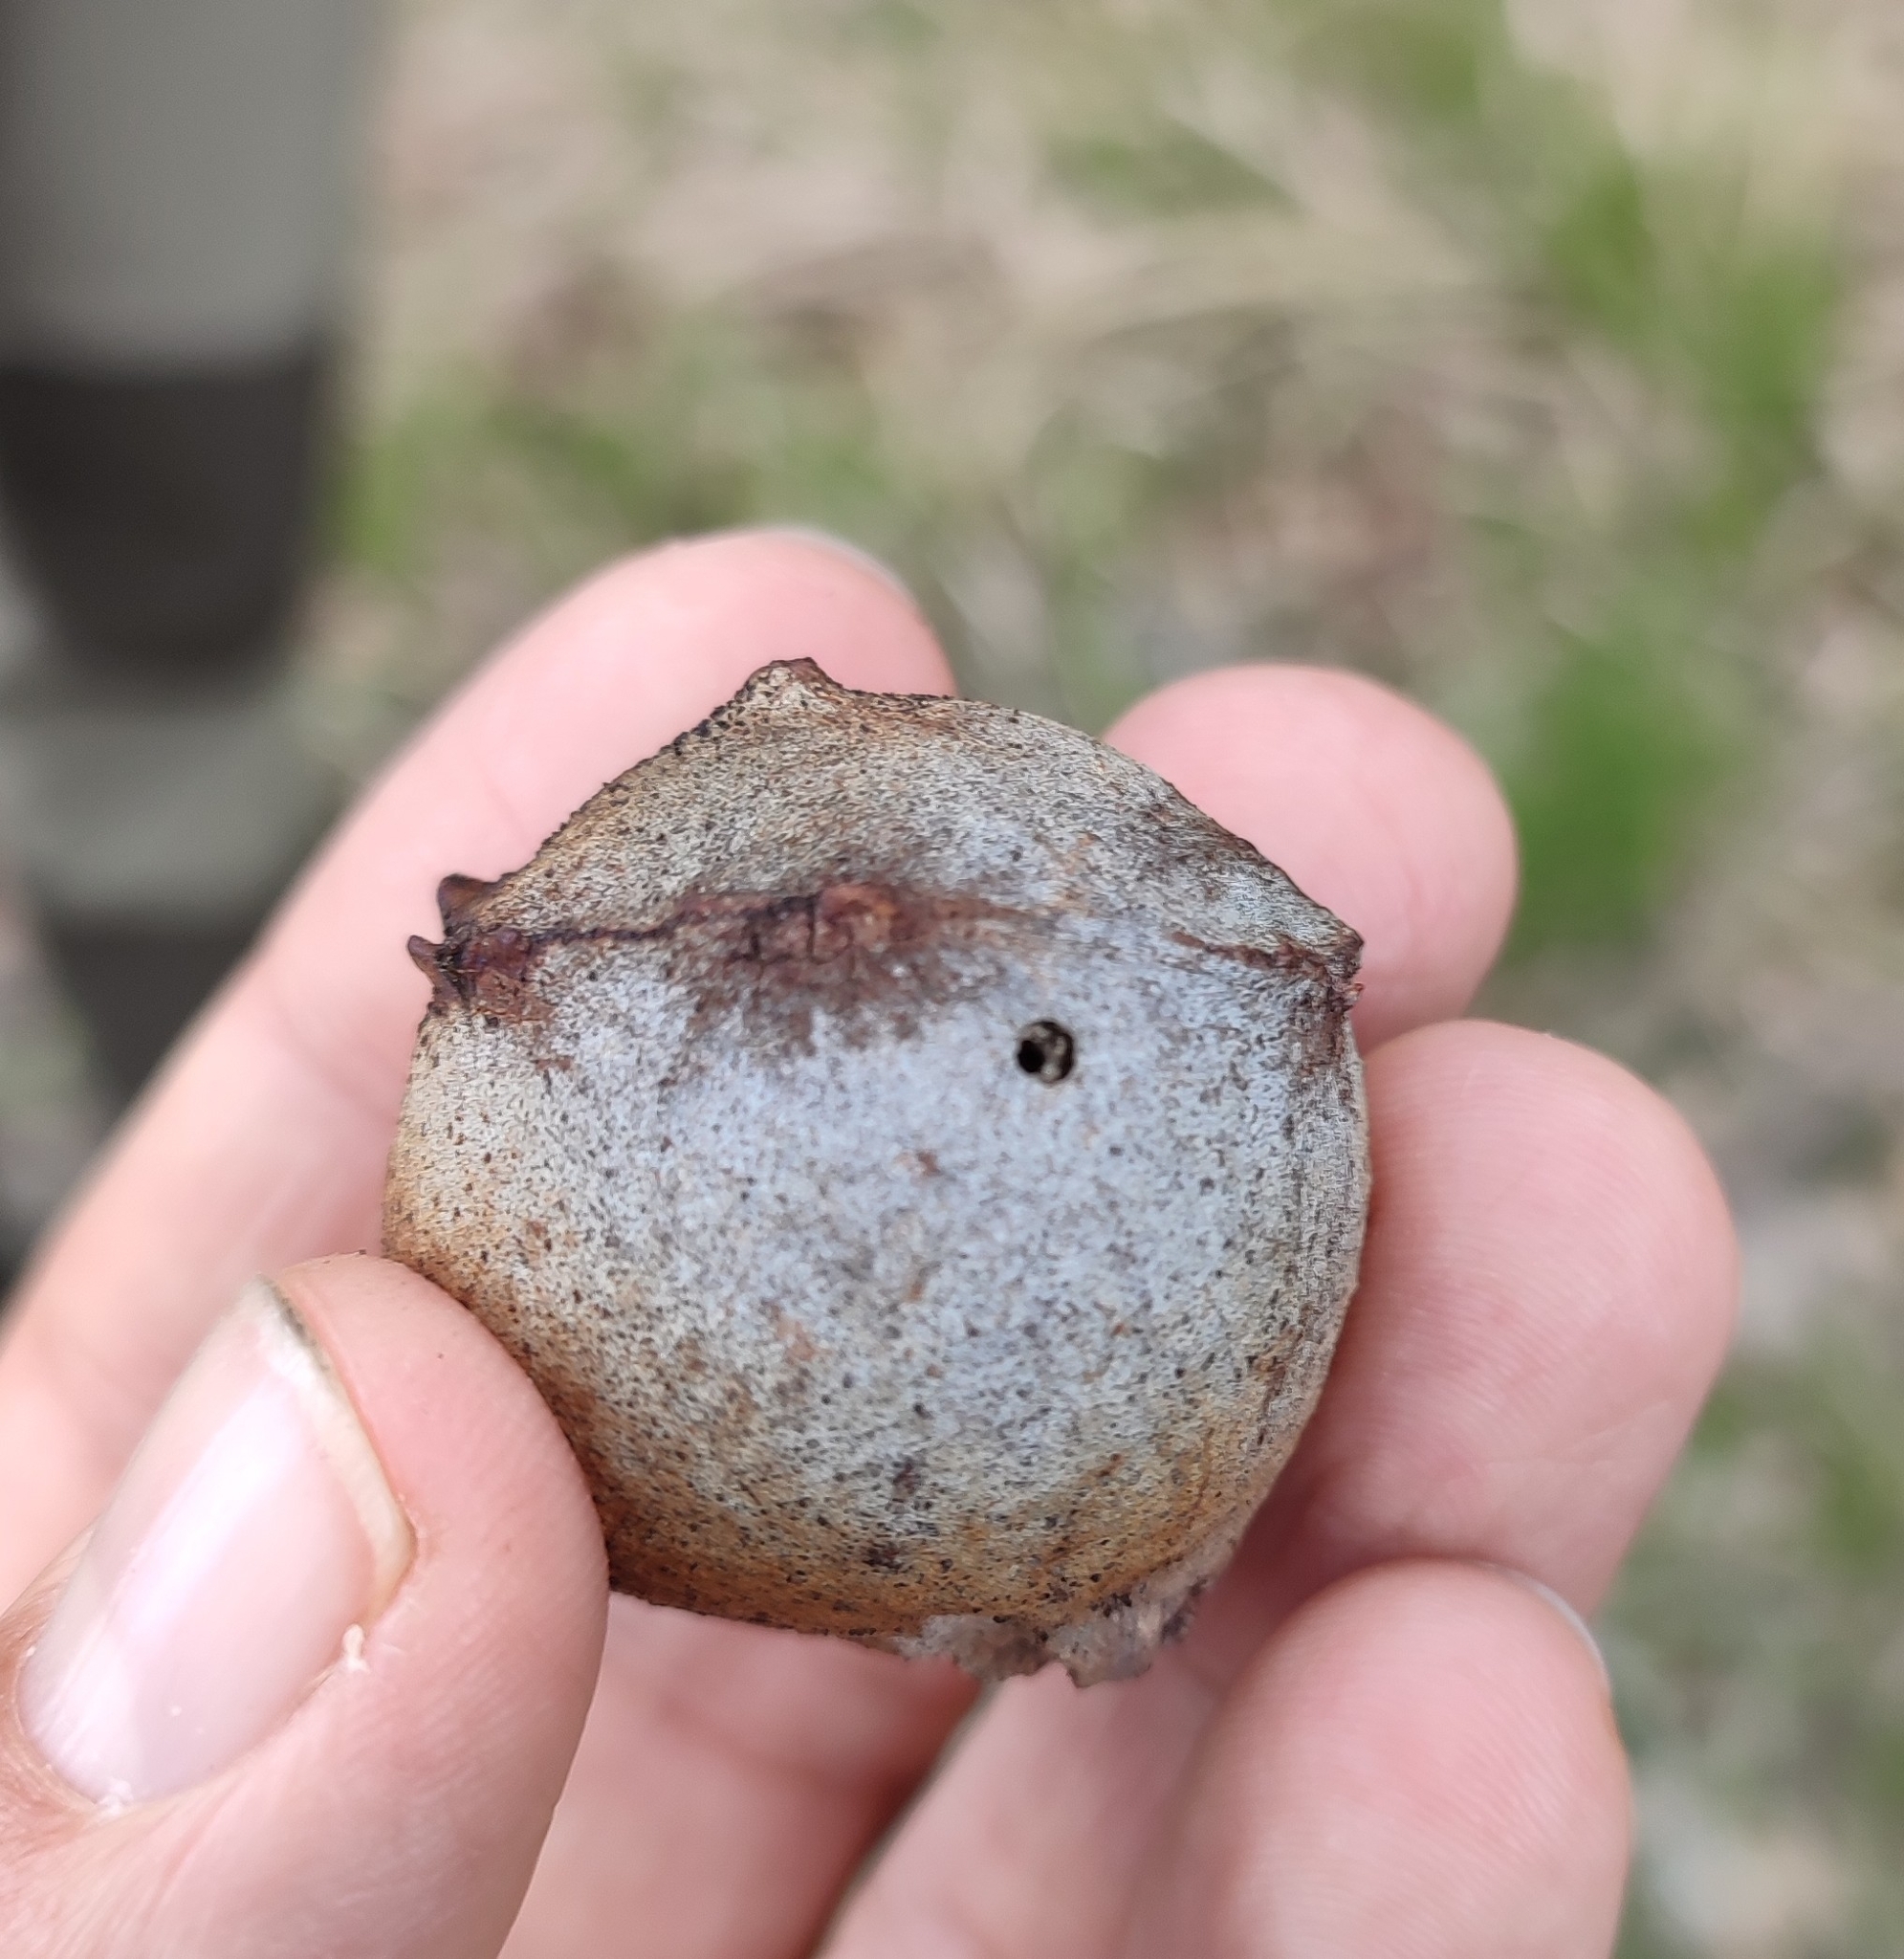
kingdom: Animalia
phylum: Arthropoda
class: Insecta
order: Hymenoptera
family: Cynipidae
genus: Andricus
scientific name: Andricus quercustozae
